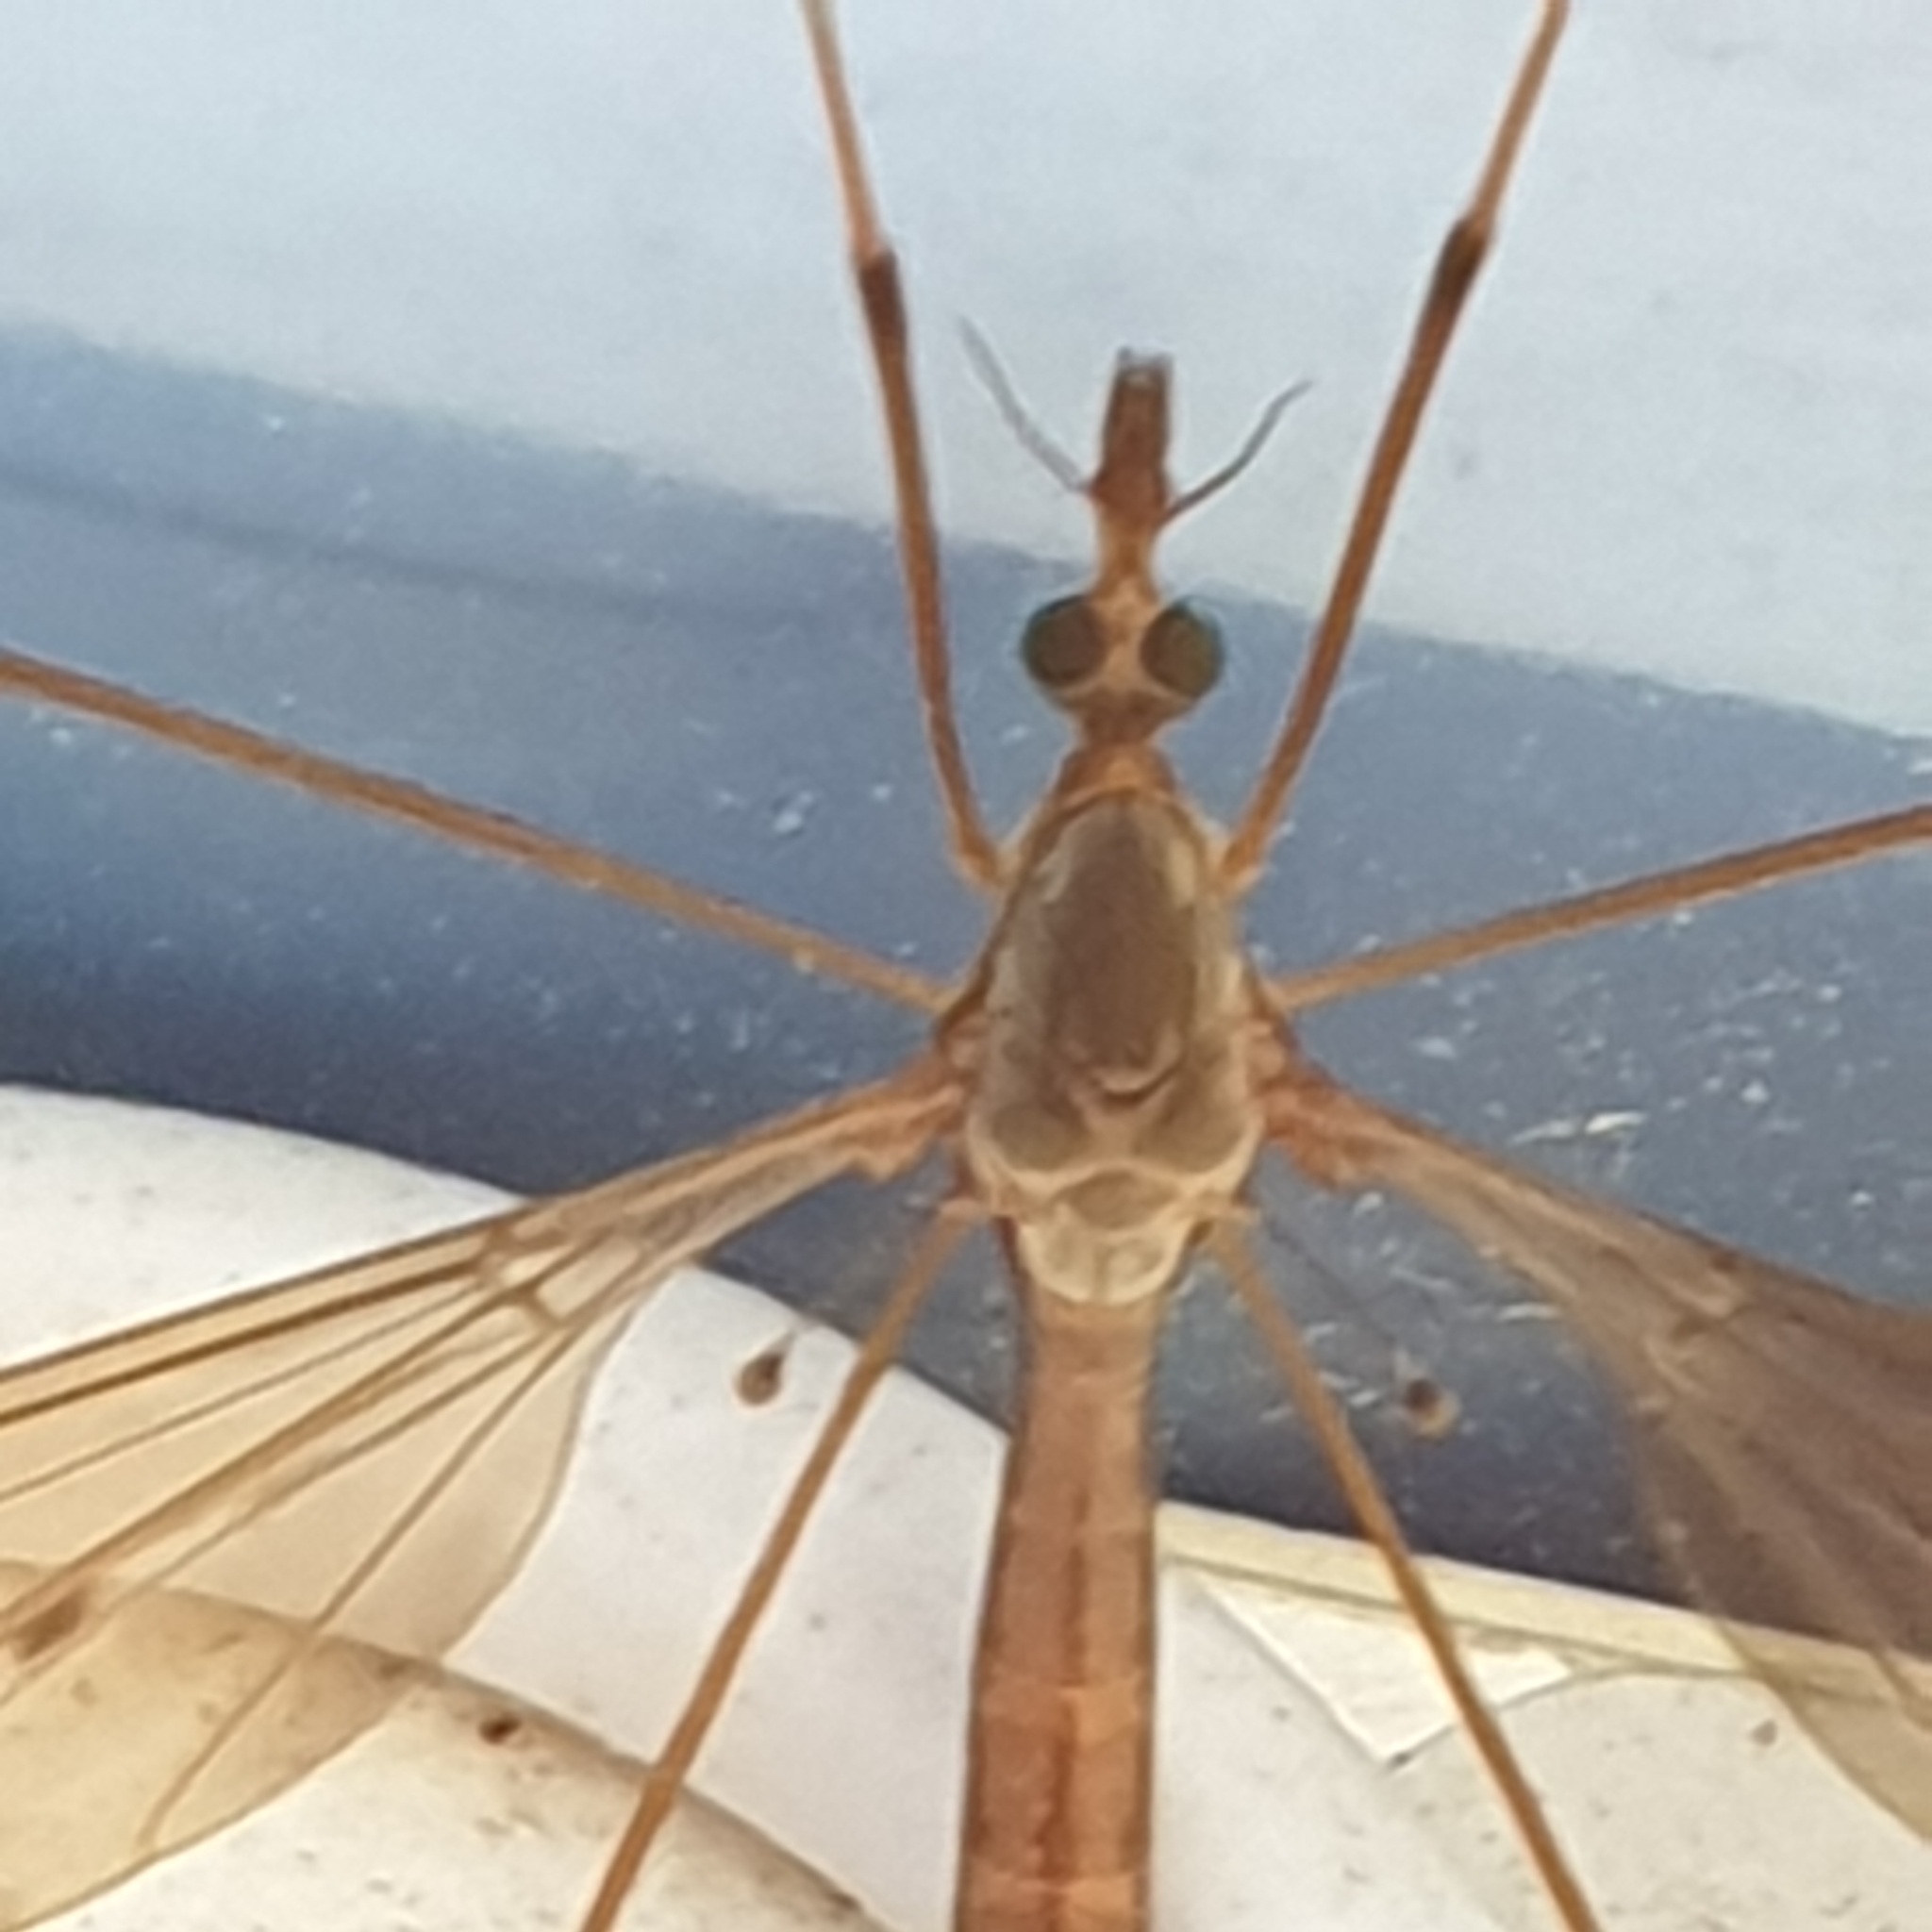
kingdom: Animalia
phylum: Arthropoda
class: Insecta
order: Diptera
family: Tipulidae
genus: Tipula
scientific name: Tipula fulvipennis
